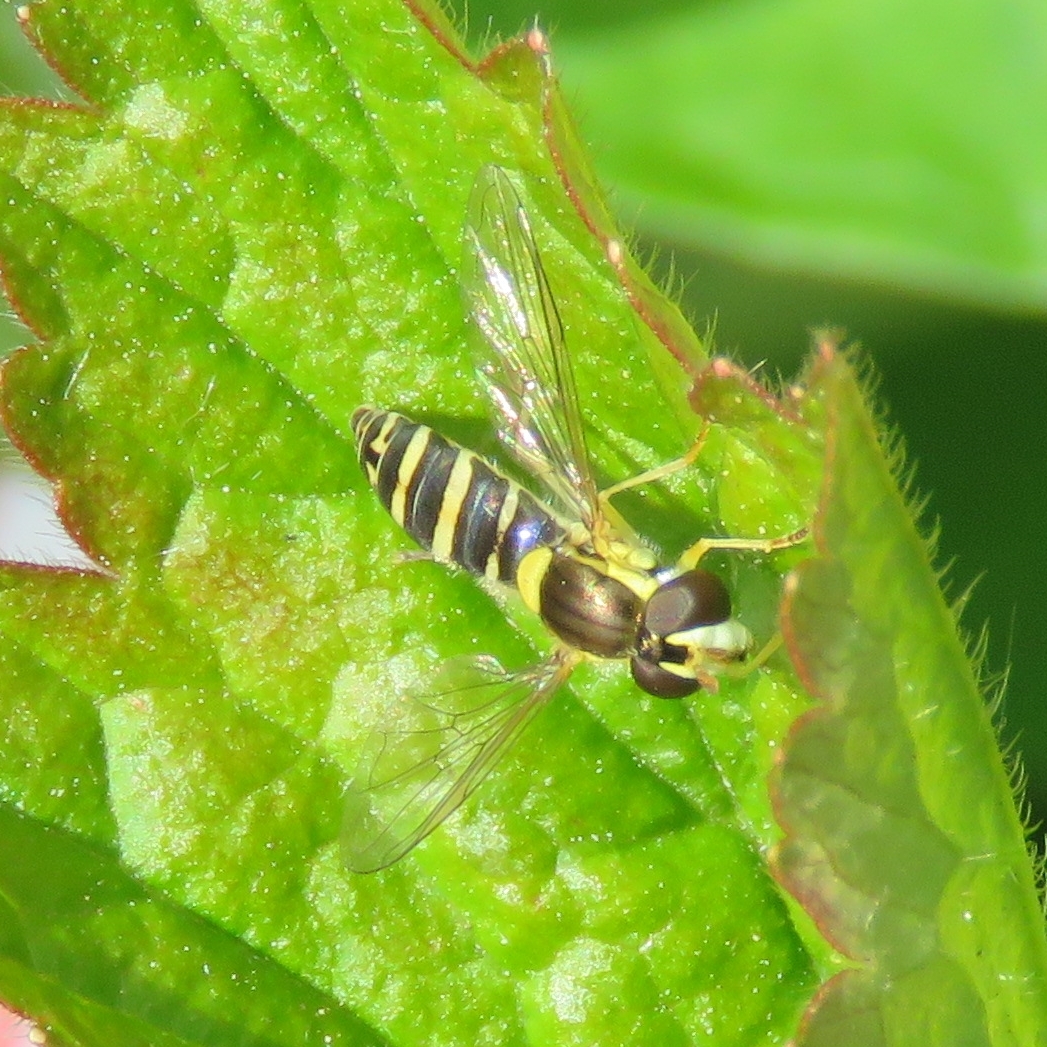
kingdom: Animalia
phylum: Arthropoda
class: Insecta
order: Diptera
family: Syrphidae
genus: Sphaerophoria
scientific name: Sphaerophoria
